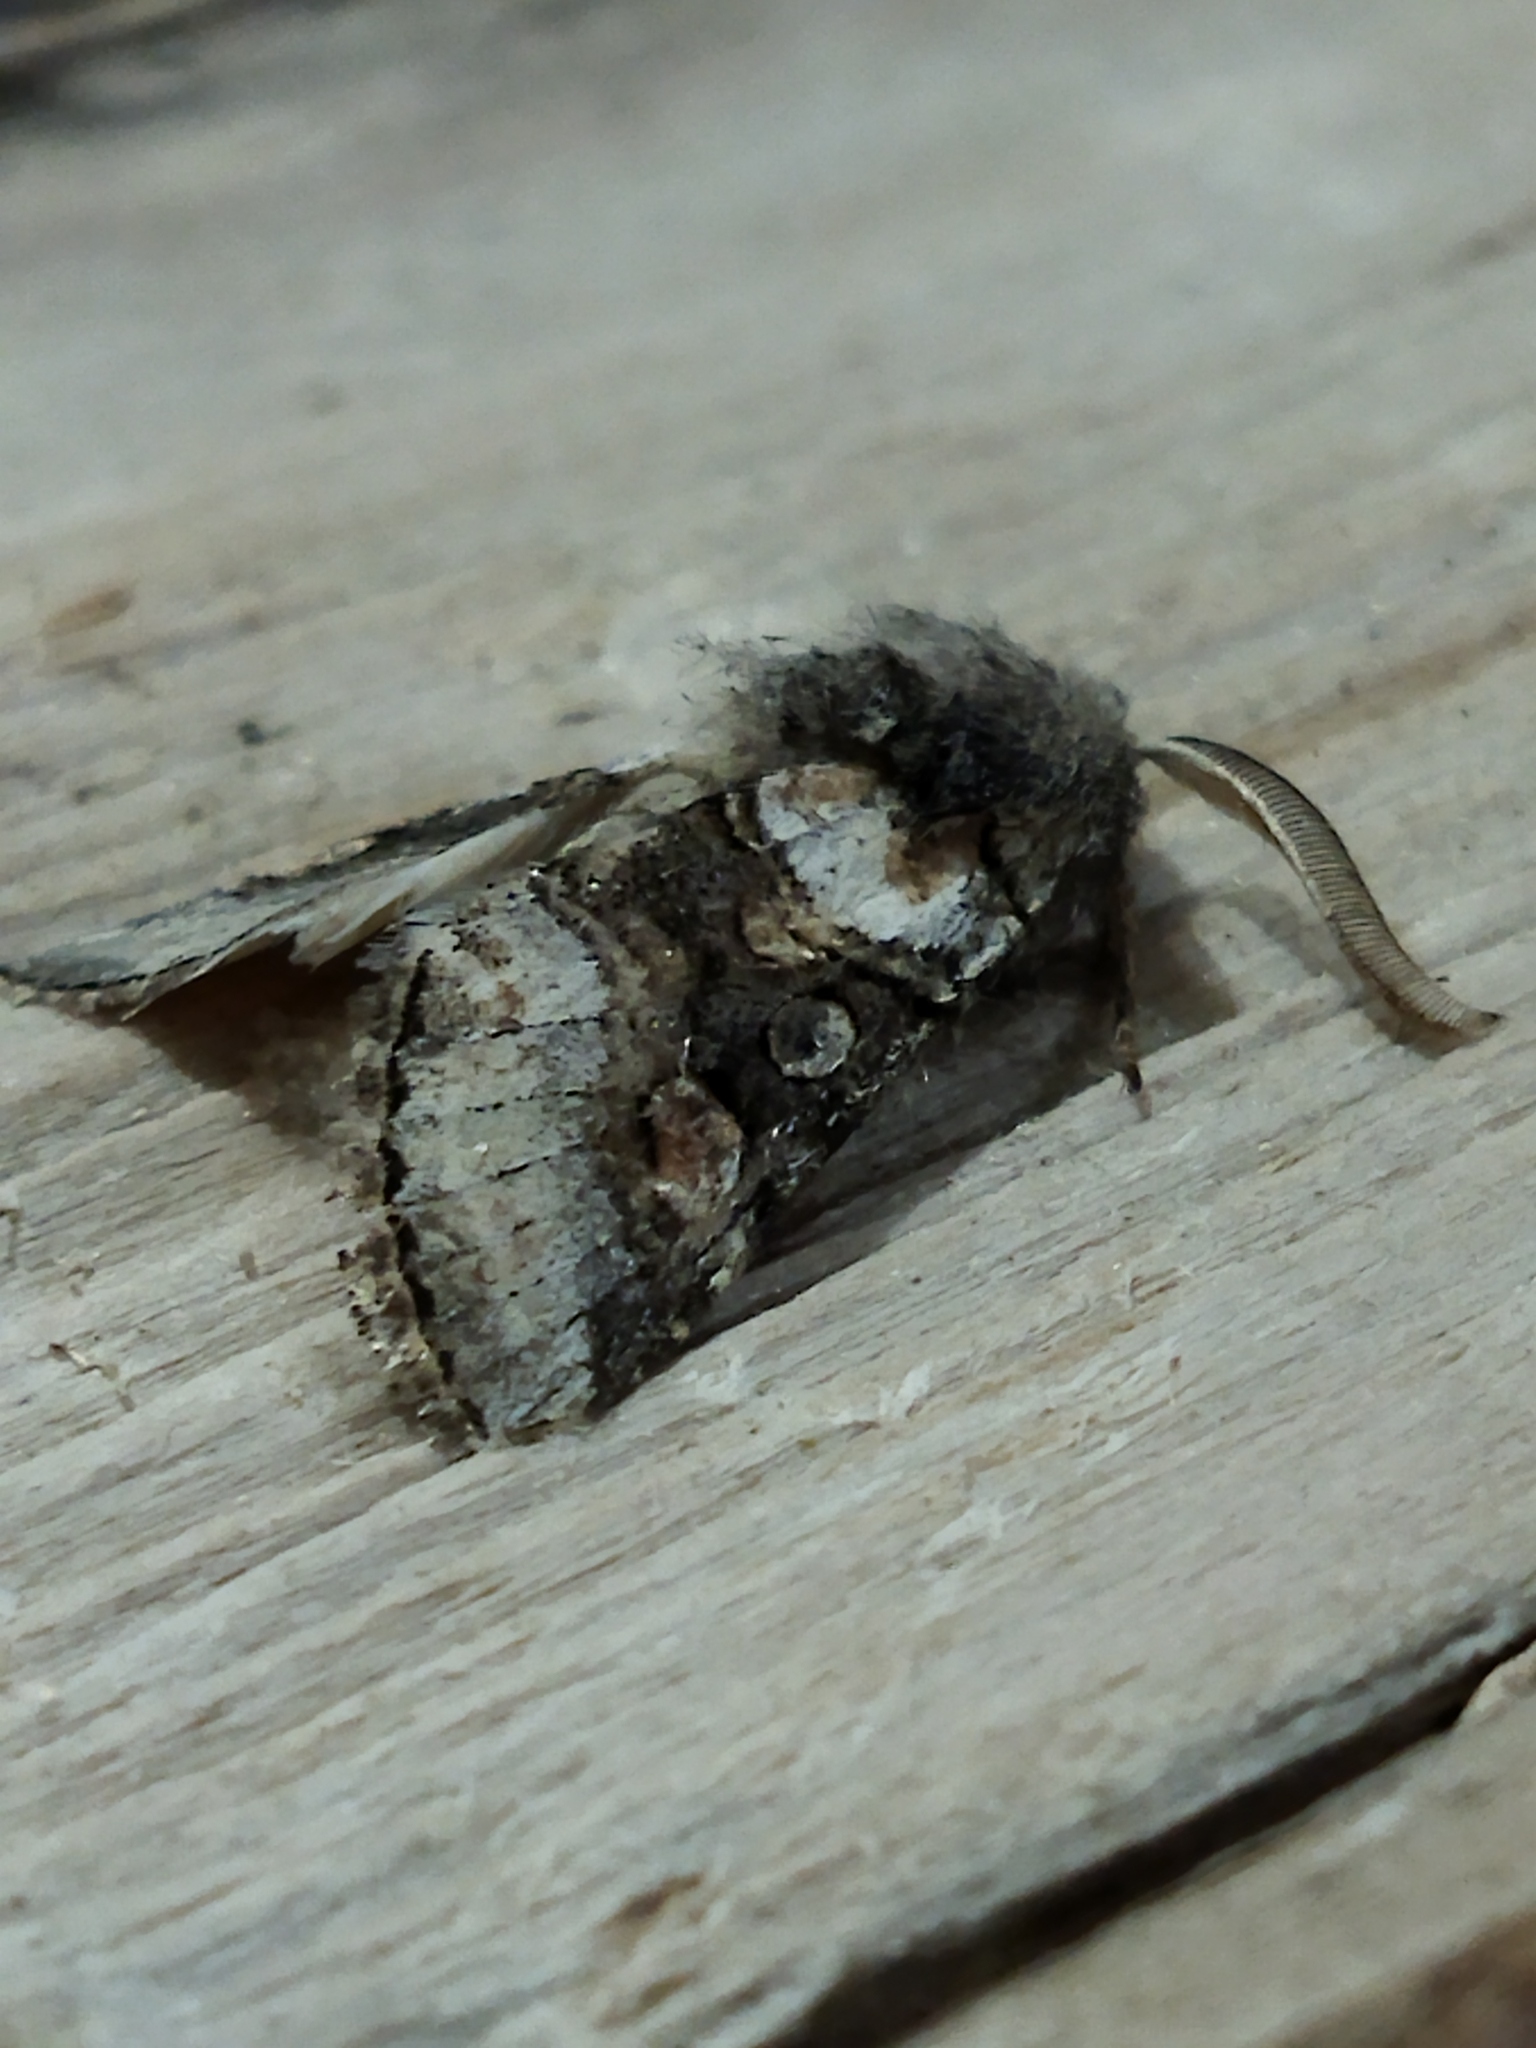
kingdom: Animalia
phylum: Arthropoda
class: Insecta
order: Lepidoptera
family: Noctuidae
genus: Cleoceris
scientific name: Cleoceris scoriacea
